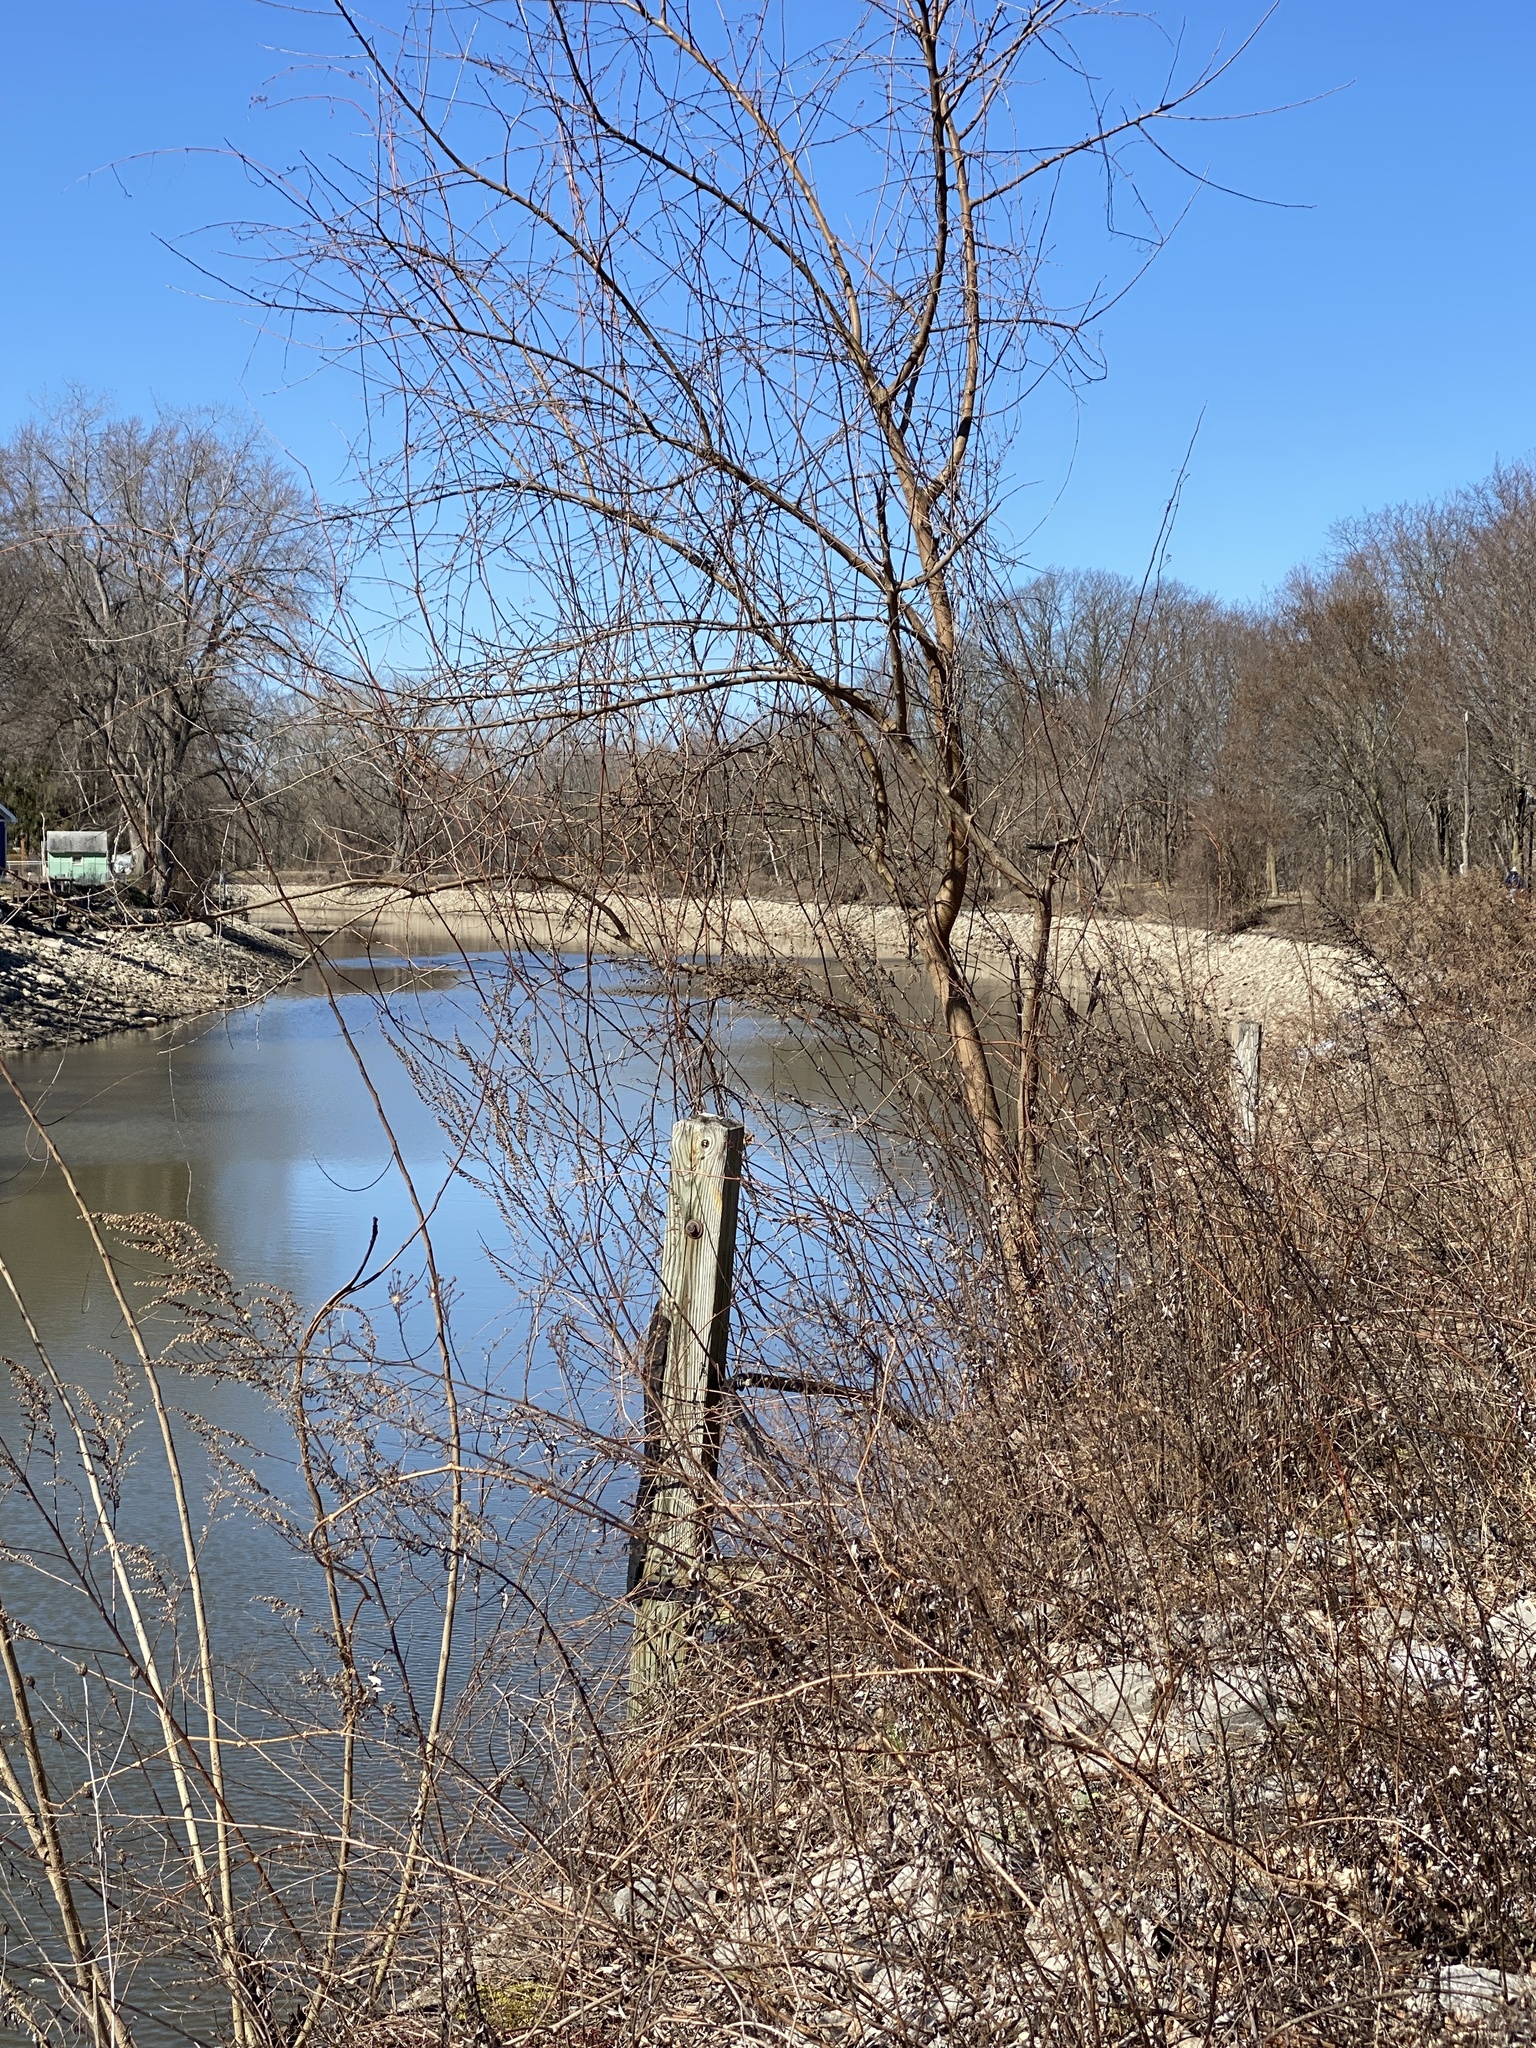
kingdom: Plantae
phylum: Tracheophyta
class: Magnoliopsida
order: Apiales
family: Apiaceae
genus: Daucus
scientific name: Daucus carota
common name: Wild carrot
